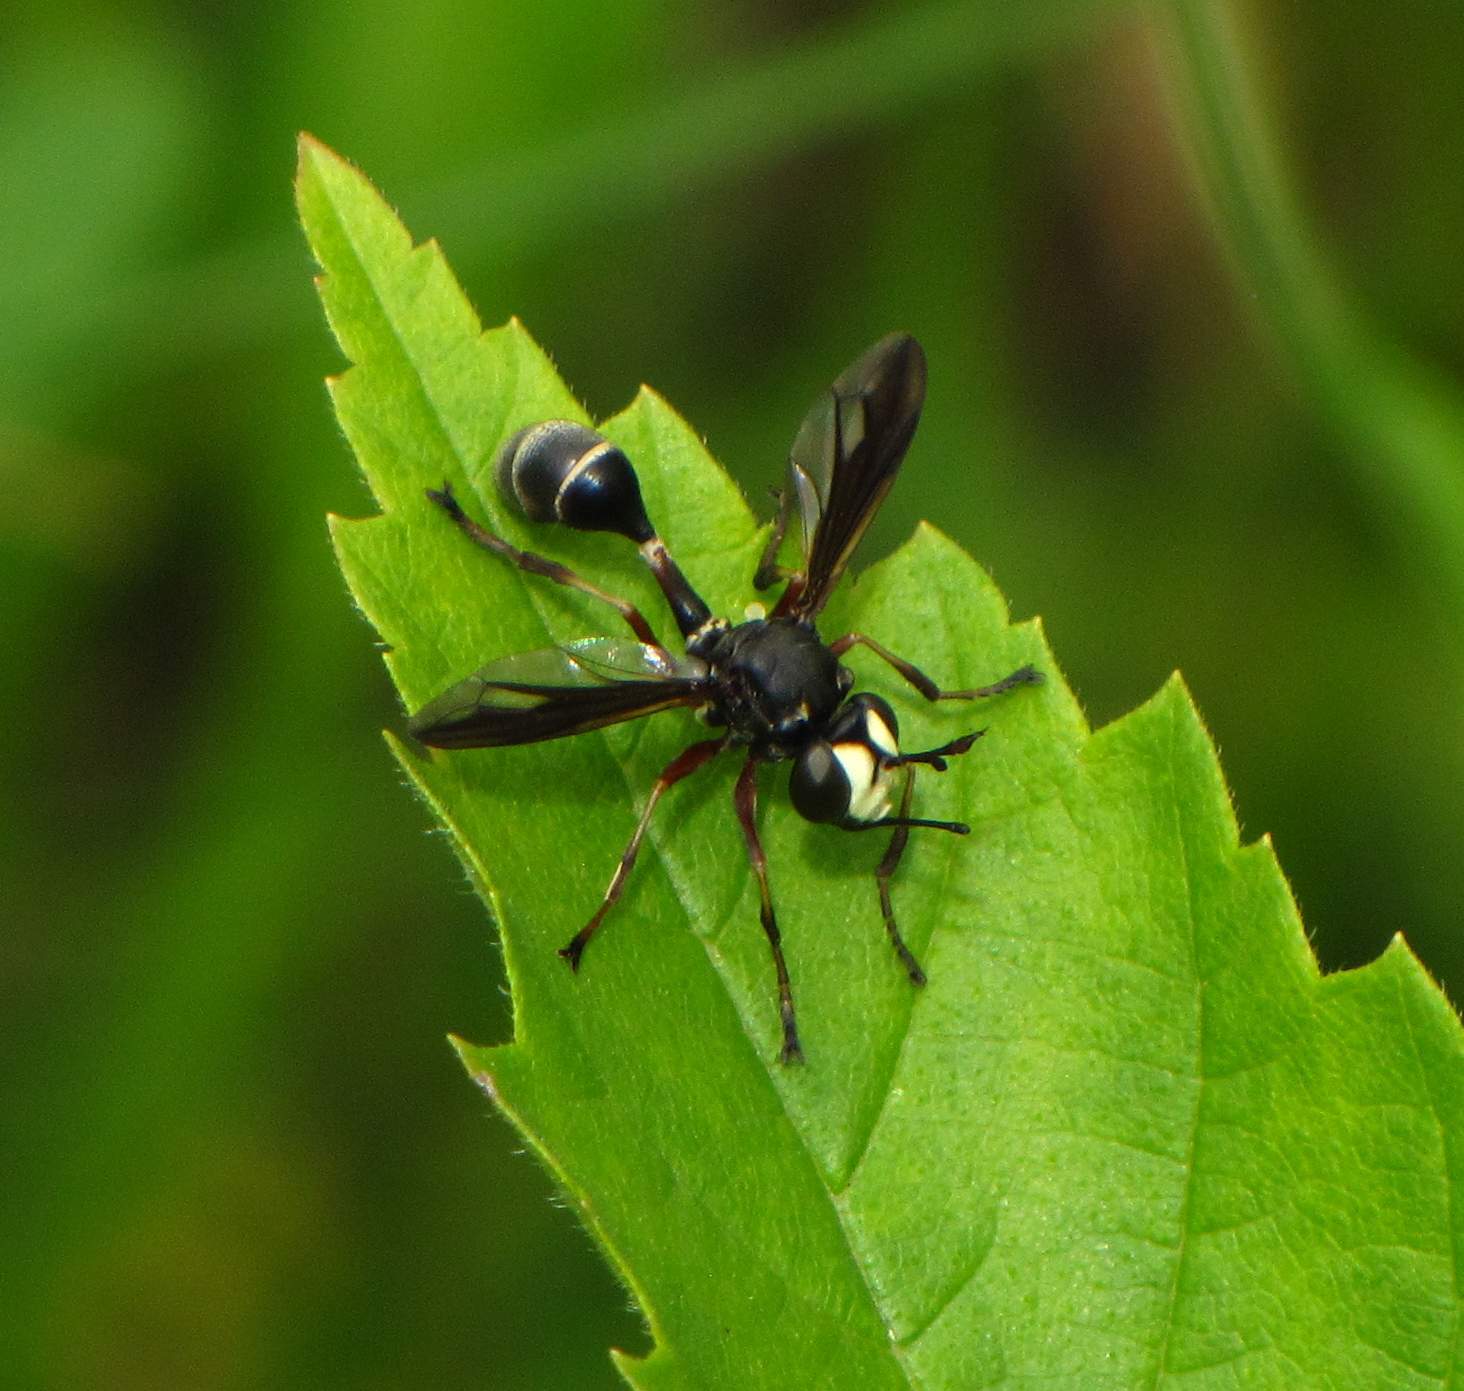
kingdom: Animalia
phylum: Arthropoda
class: Insecta
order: Diptera
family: Conopidae
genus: Physocephala
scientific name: Physocephala furcillata
